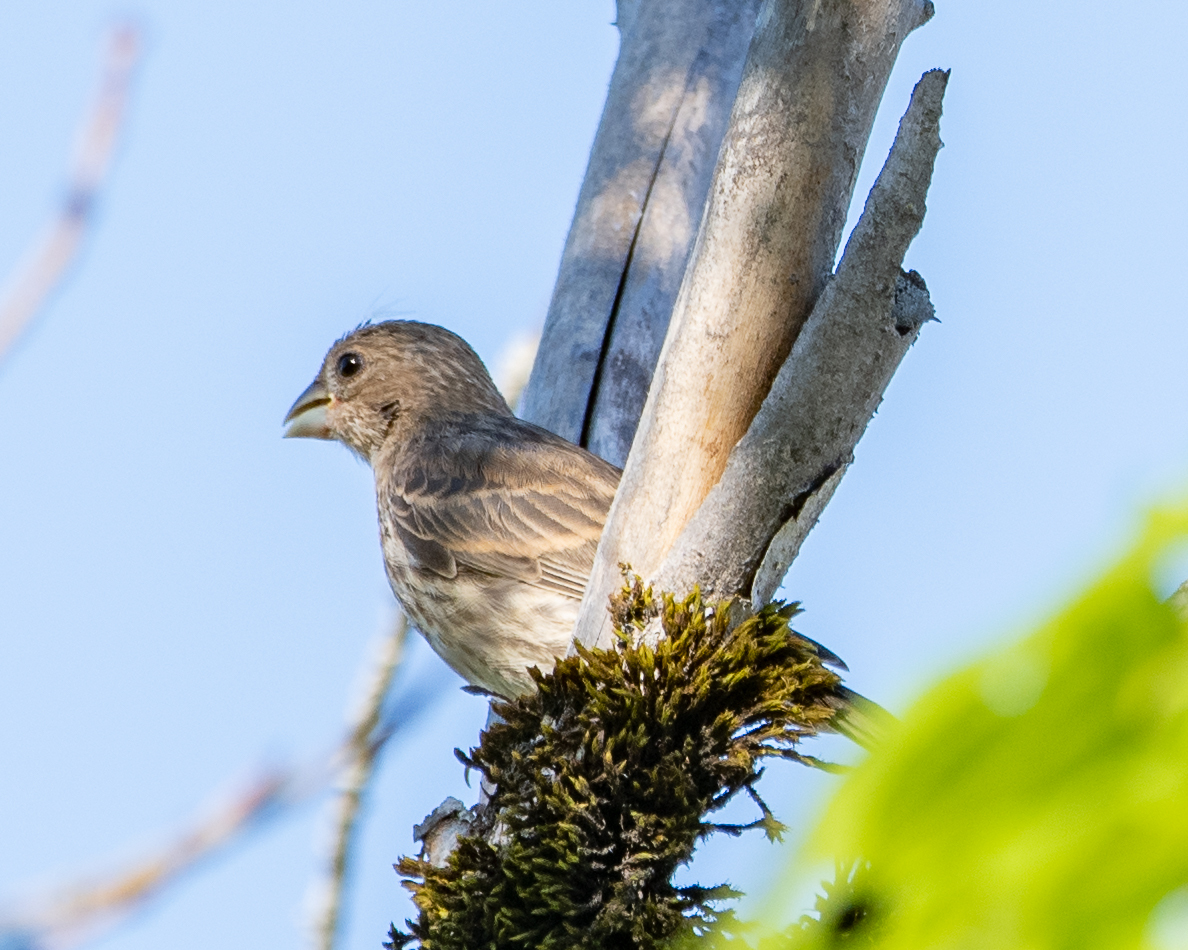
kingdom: Animalia
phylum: Chordata
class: Aves
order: Passeriformes
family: Fringillidae
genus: Haemorhous
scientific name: Haemorhous mexicanus
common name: House finch
